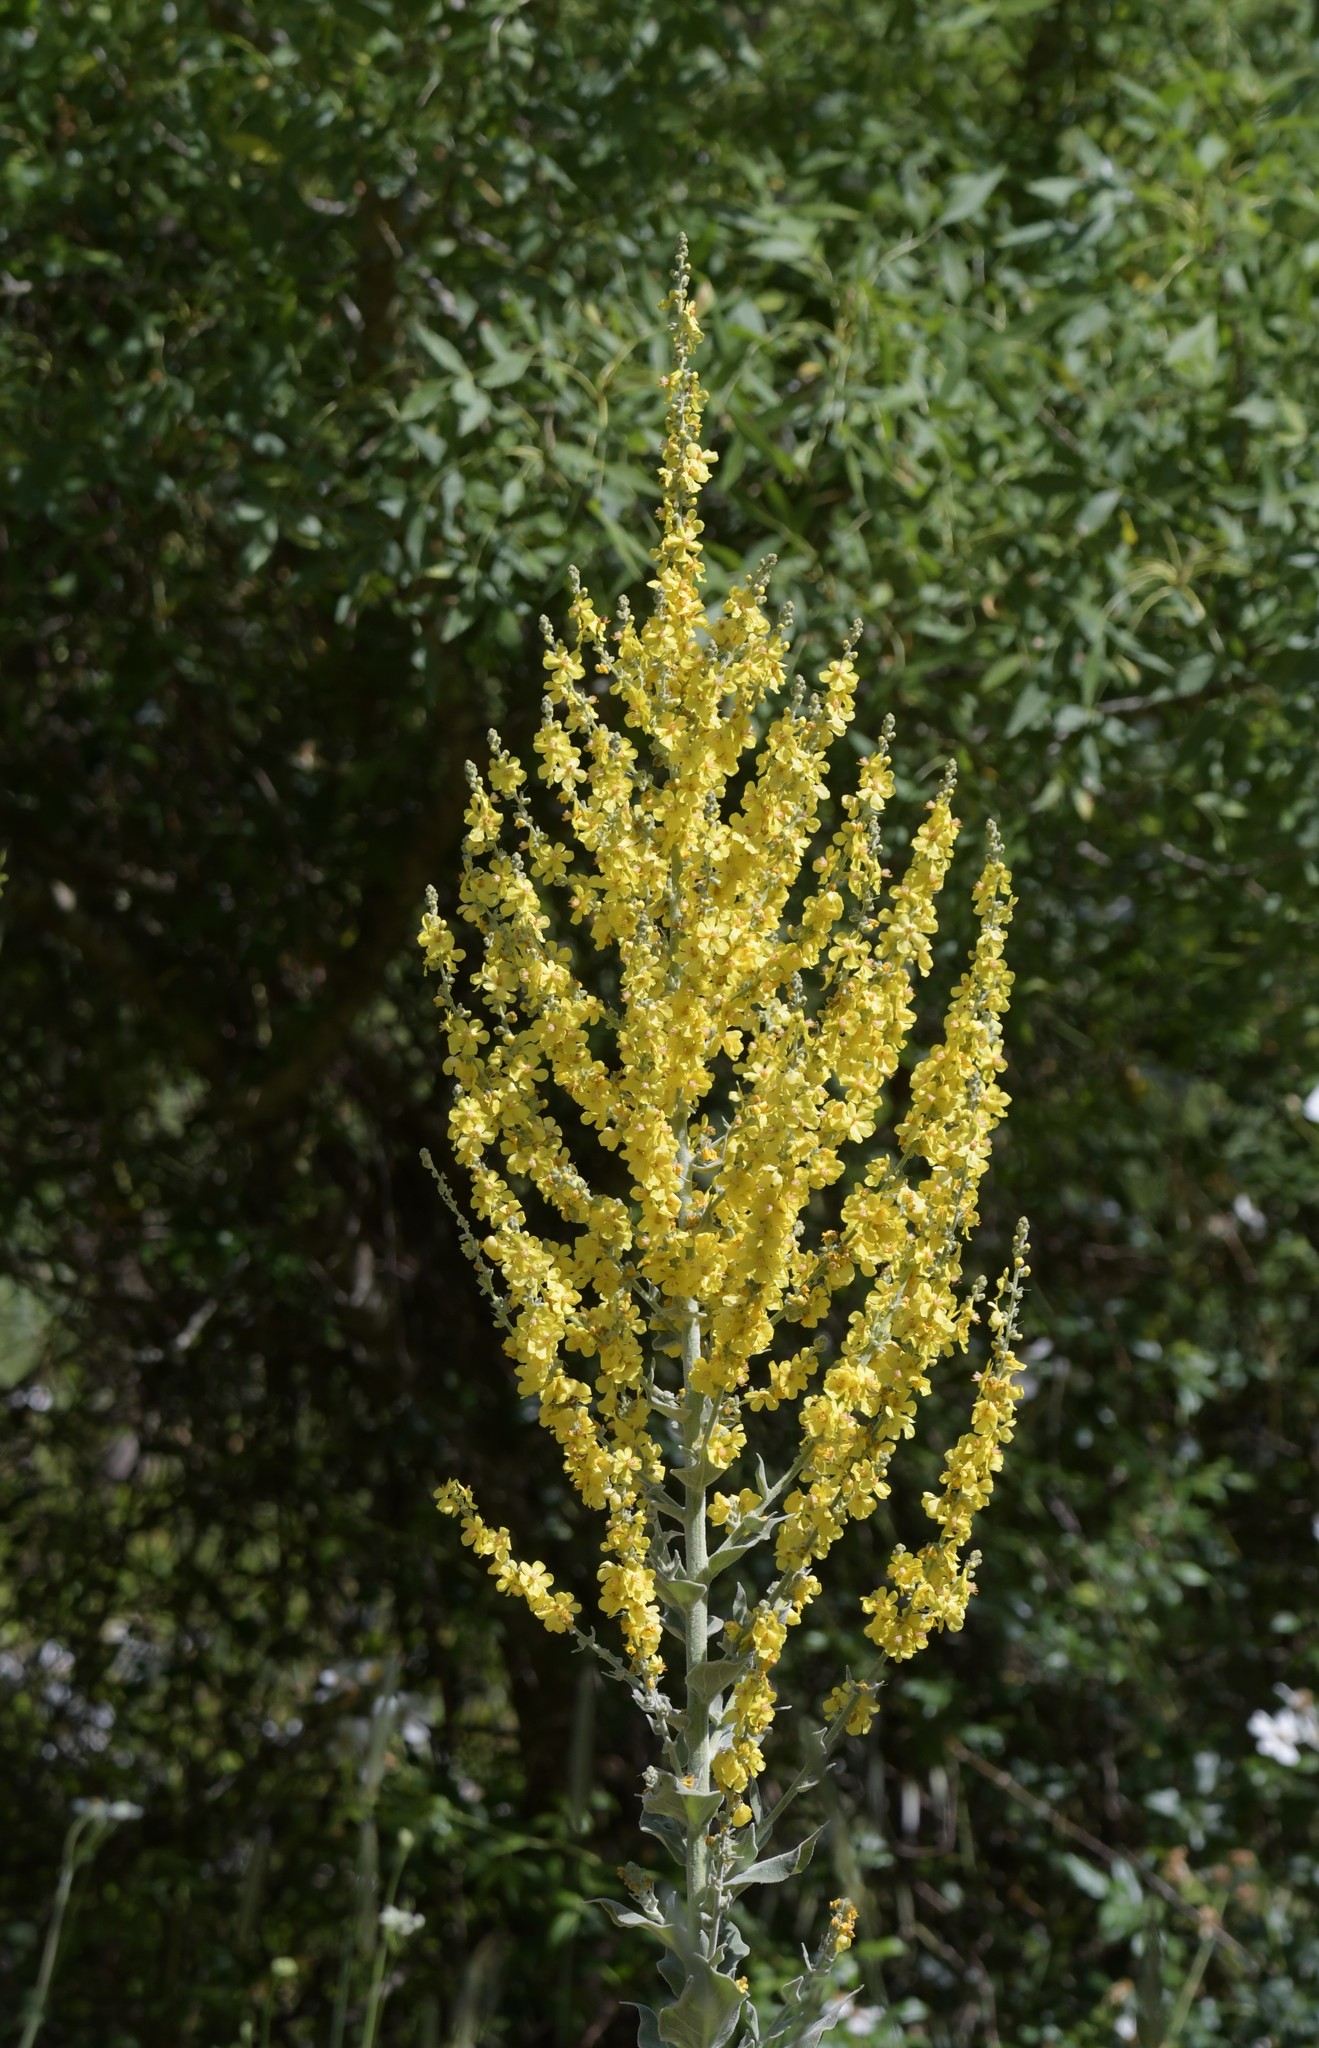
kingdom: Plantae
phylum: Tracheophyta
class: Magnoliopsida
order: Lamiales
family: Scrophulariaceae
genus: Verbascum
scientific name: Verbascum pulverulentum
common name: Broad-leaf mullein
